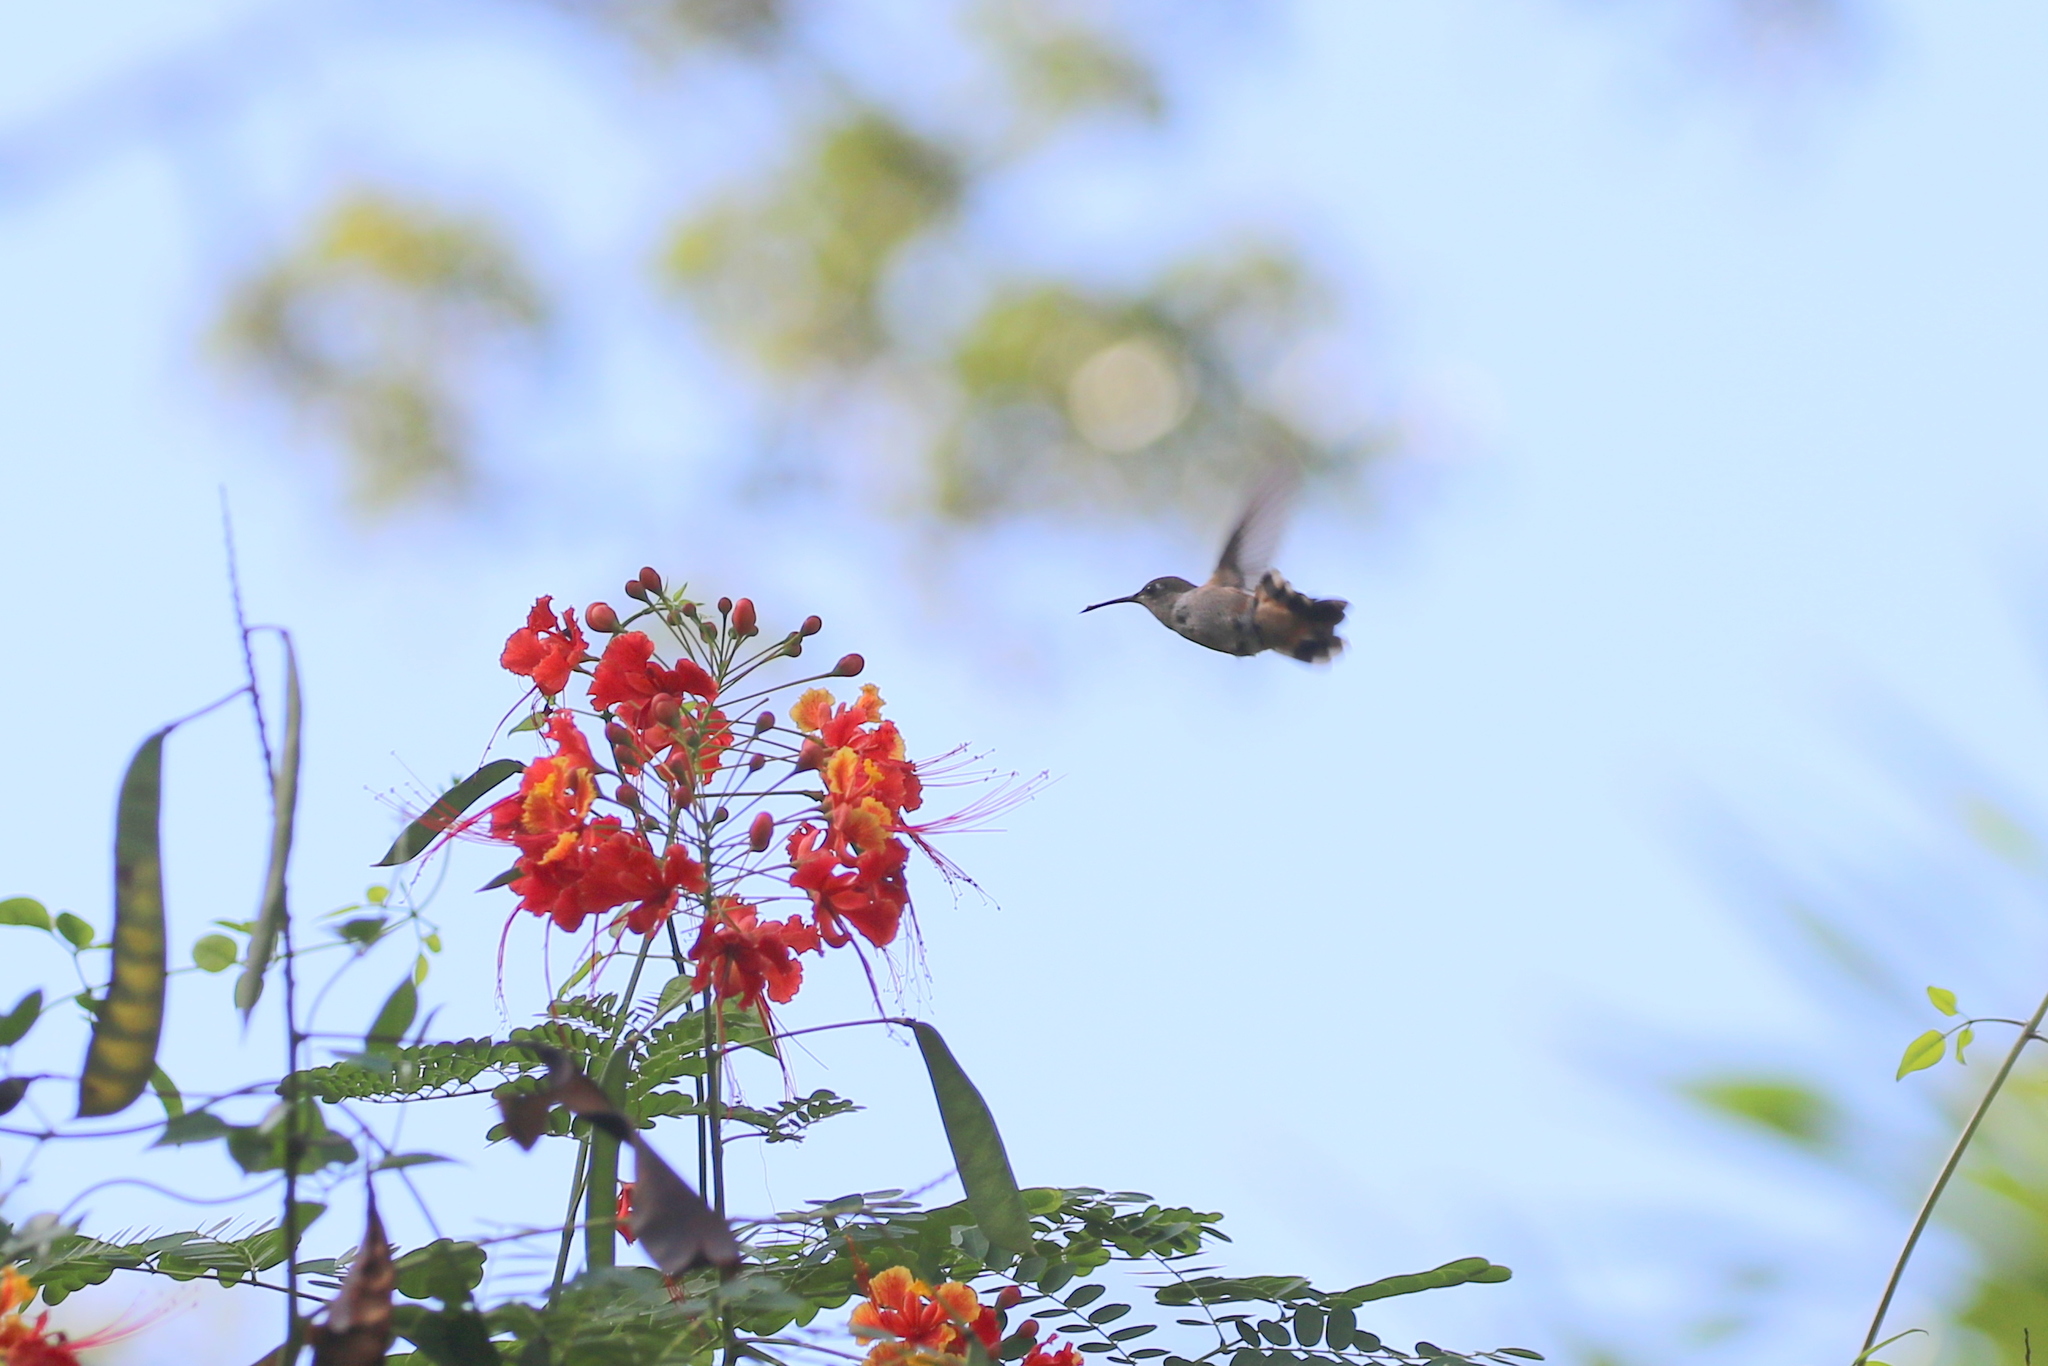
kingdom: Animalia
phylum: Chordata
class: Aves
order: Apodiformes
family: Trochilidae
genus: Nesophlox
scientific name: Nesophlox evelynae
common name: Bahama woodstar
